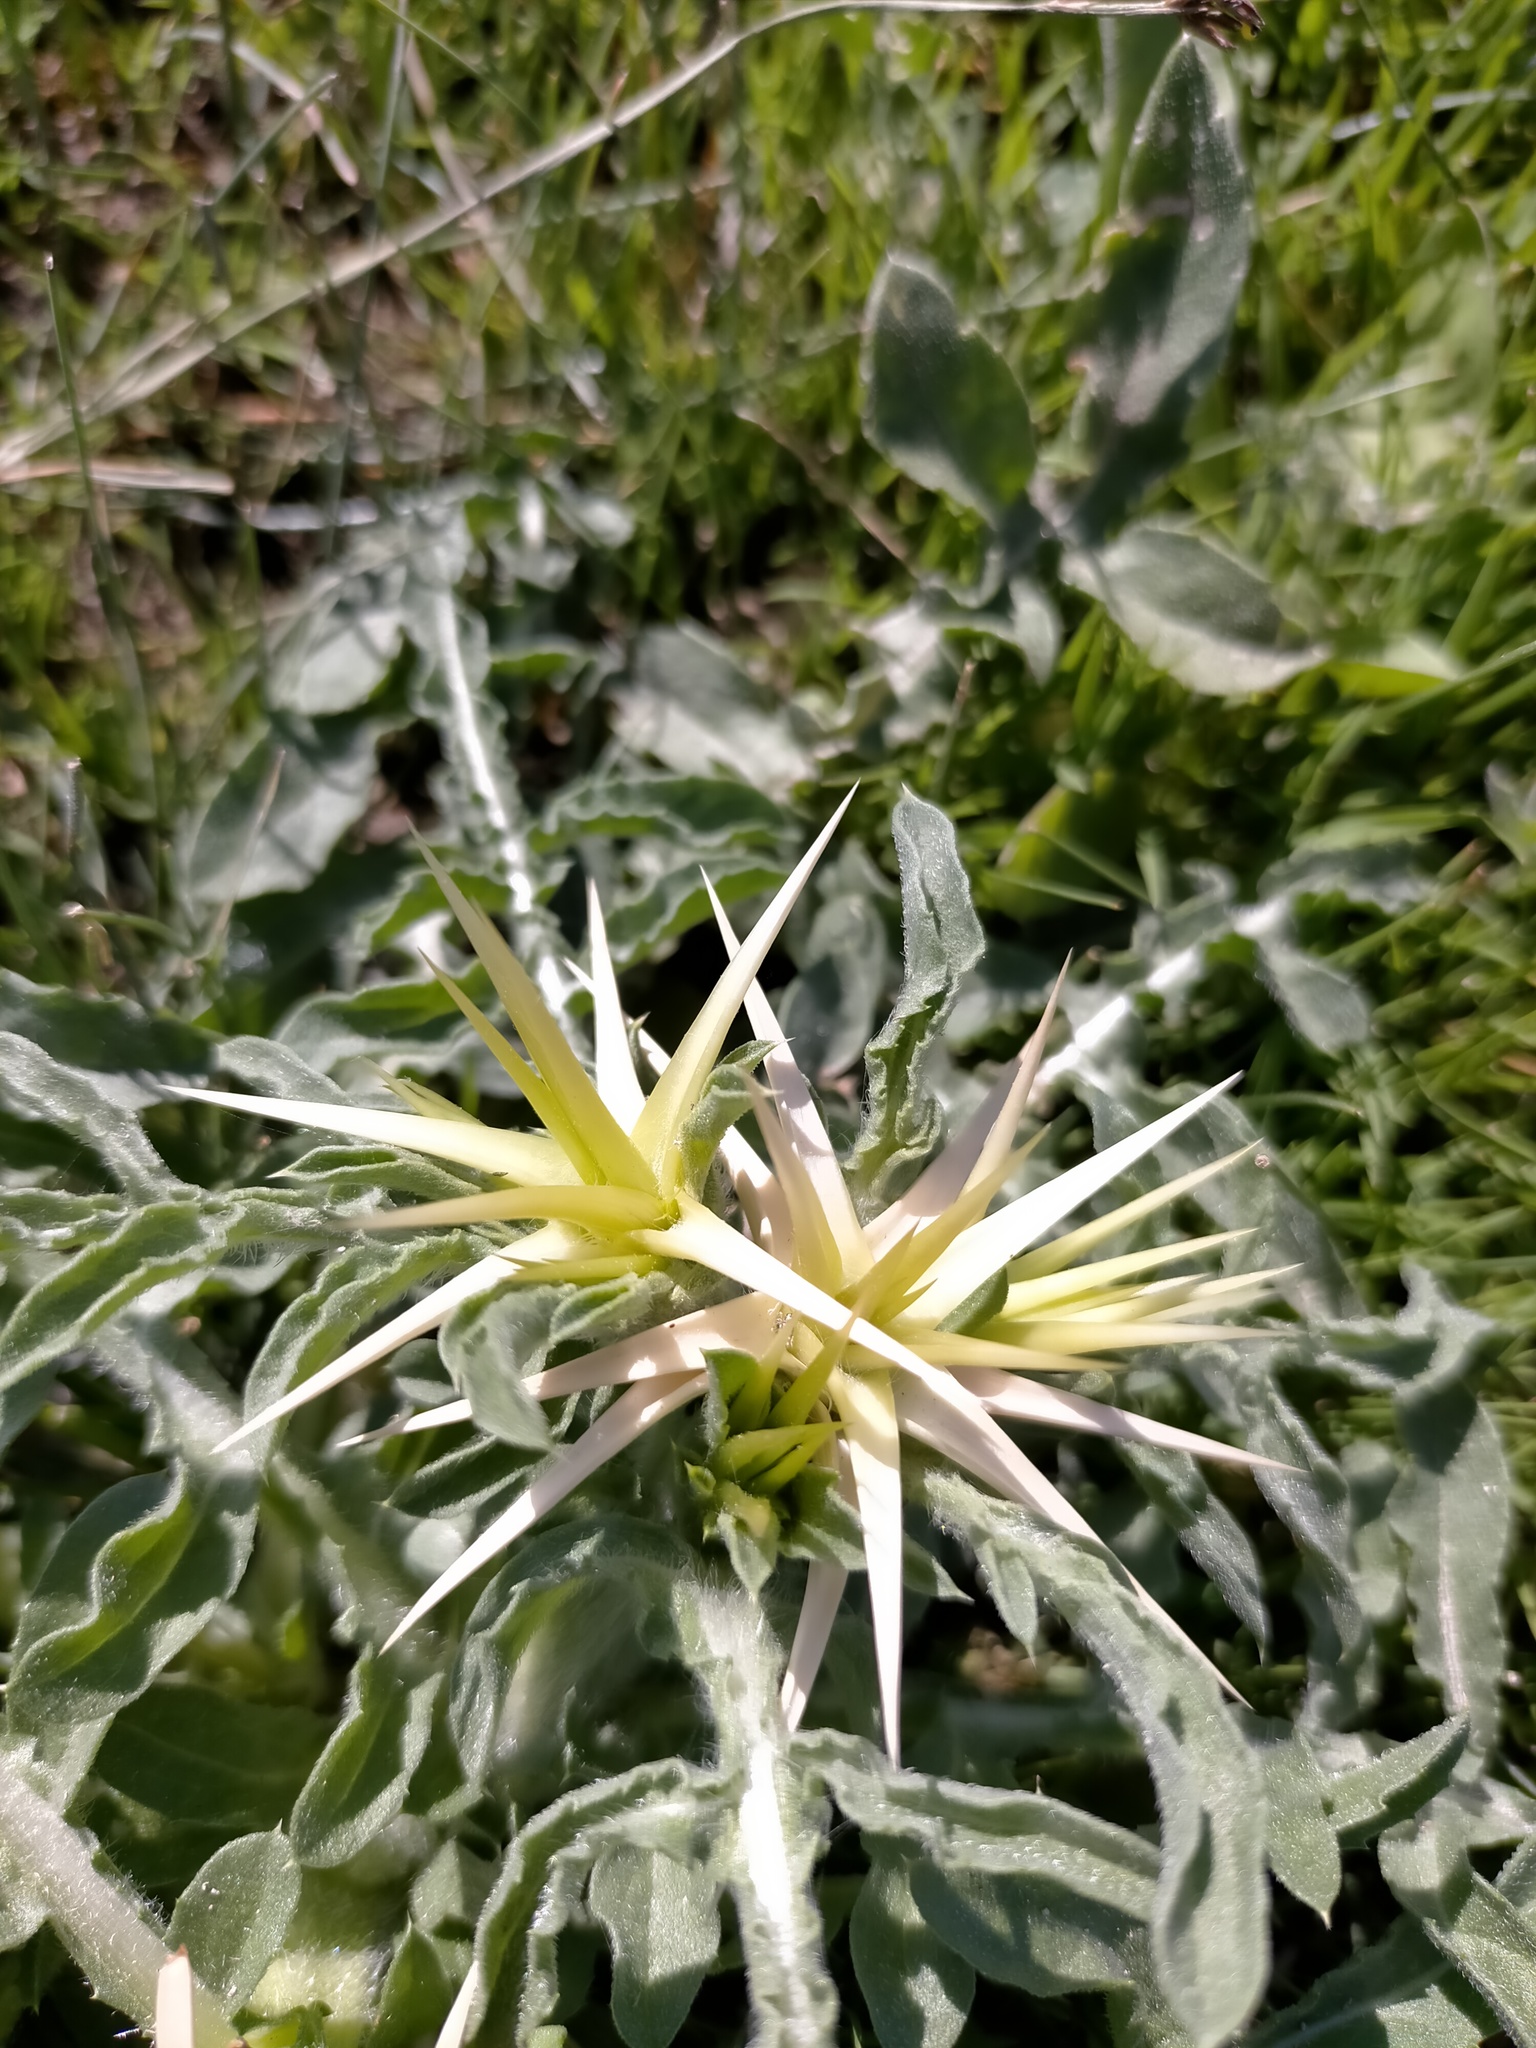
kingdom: Plantae
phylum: Tracheophyta
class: Magnoliopsida
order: Asterales
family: Asteraceae
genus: Centaurea
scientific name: Centaurea iberica
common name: Iberian knapweed
